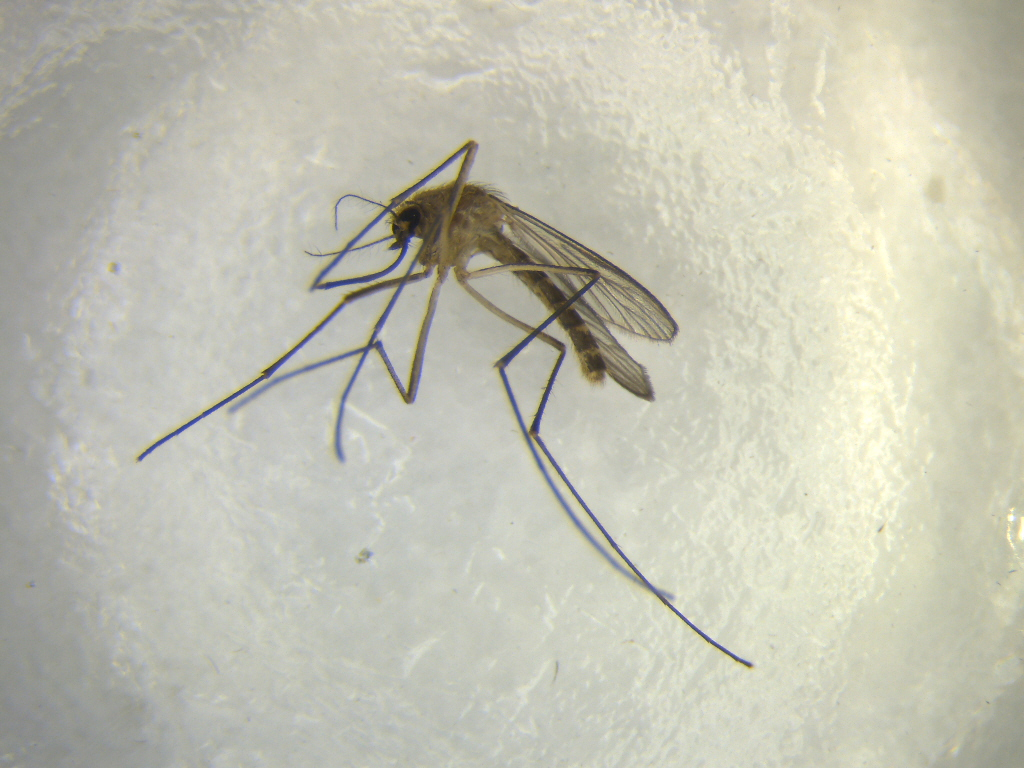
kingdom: Animalia
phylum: Arthropoda
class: Insecta
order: Diptera
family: Culicidae
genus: Culex
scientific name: Culex quinquefasciatus
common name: Southern house mosquito
